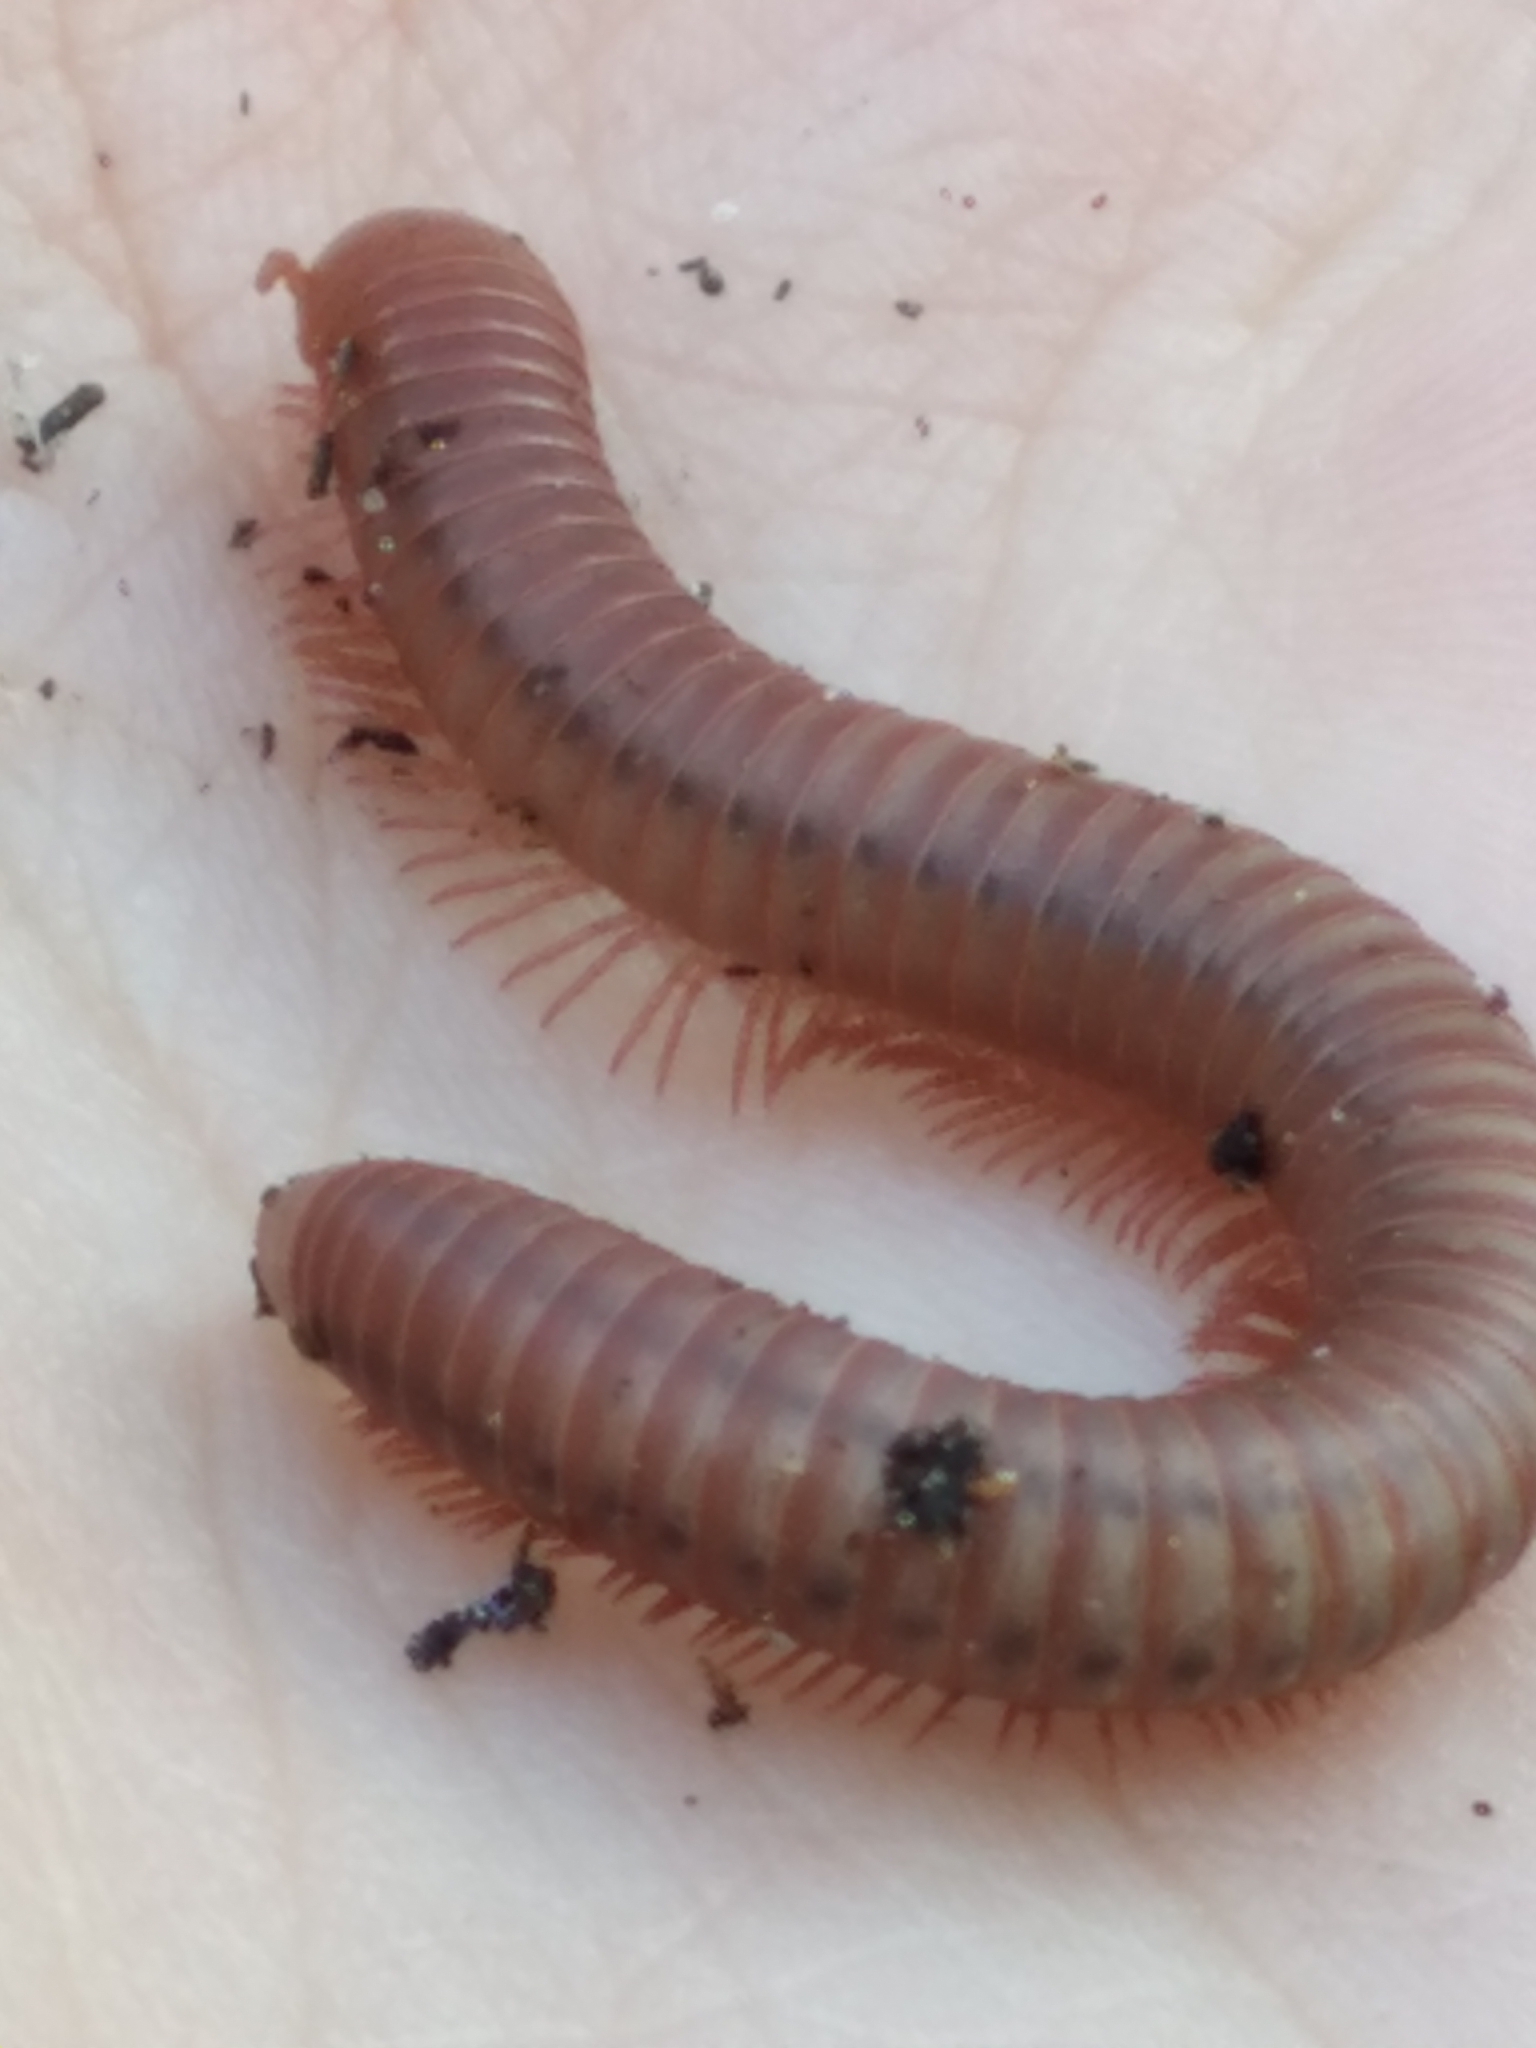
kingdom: Animalia
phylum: Arthropoda
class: Diplopoda
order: Spirobolida
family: Pachybolidae
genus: Trigoniulus
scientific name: Trigoniulus corallinus
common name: Millipede
